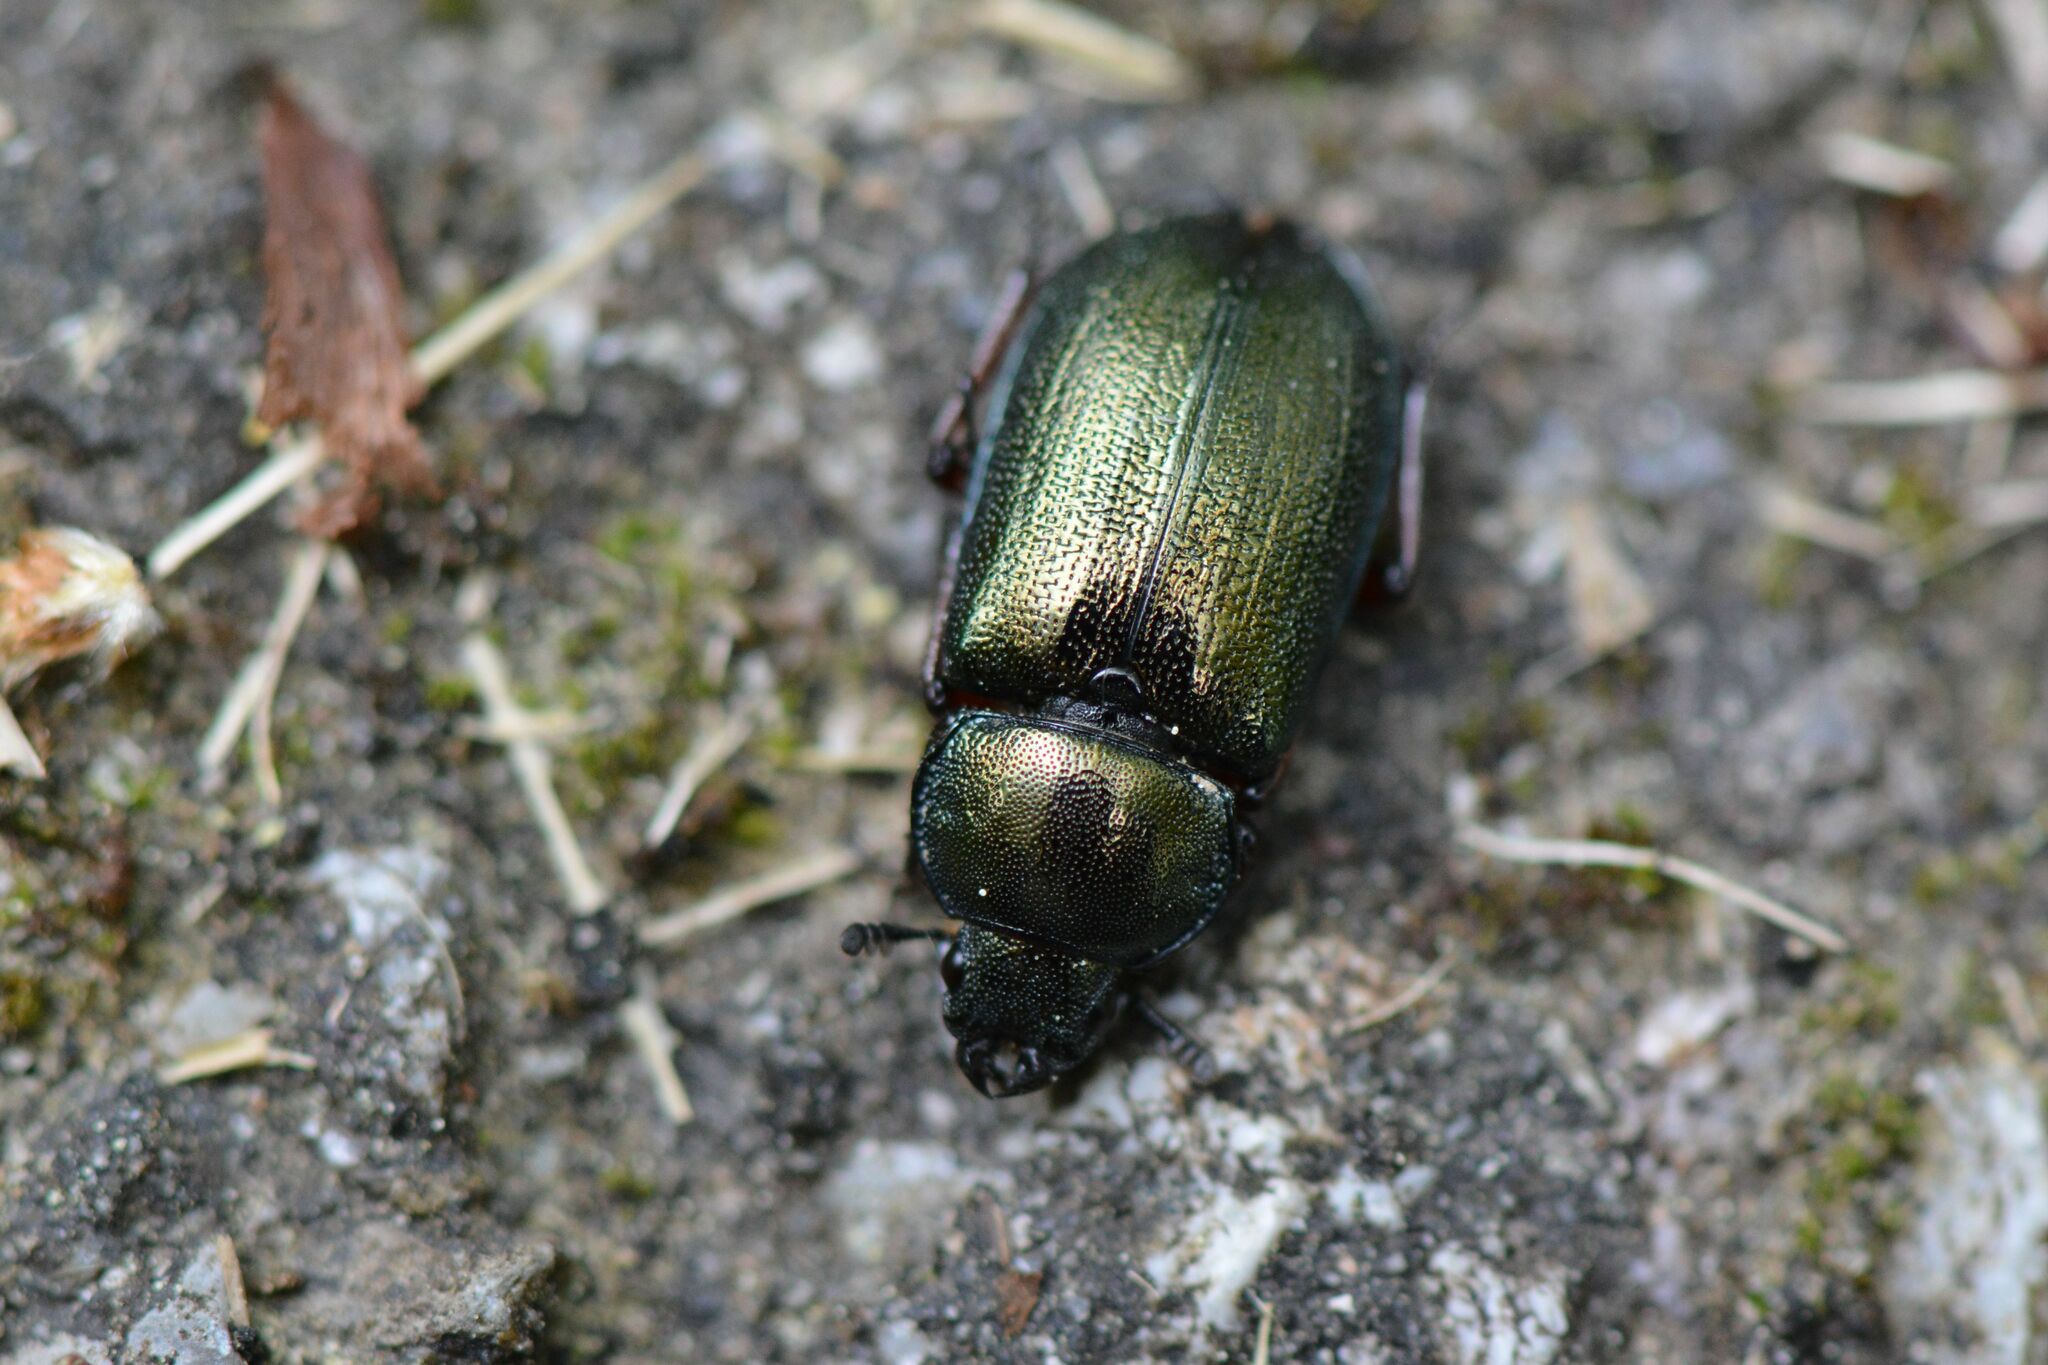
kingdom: Animalia
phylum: Arthropoda
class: Insecta
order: Coleoptera
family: Lucanidae
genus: Platycerus
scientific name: Platycerus caraboides
